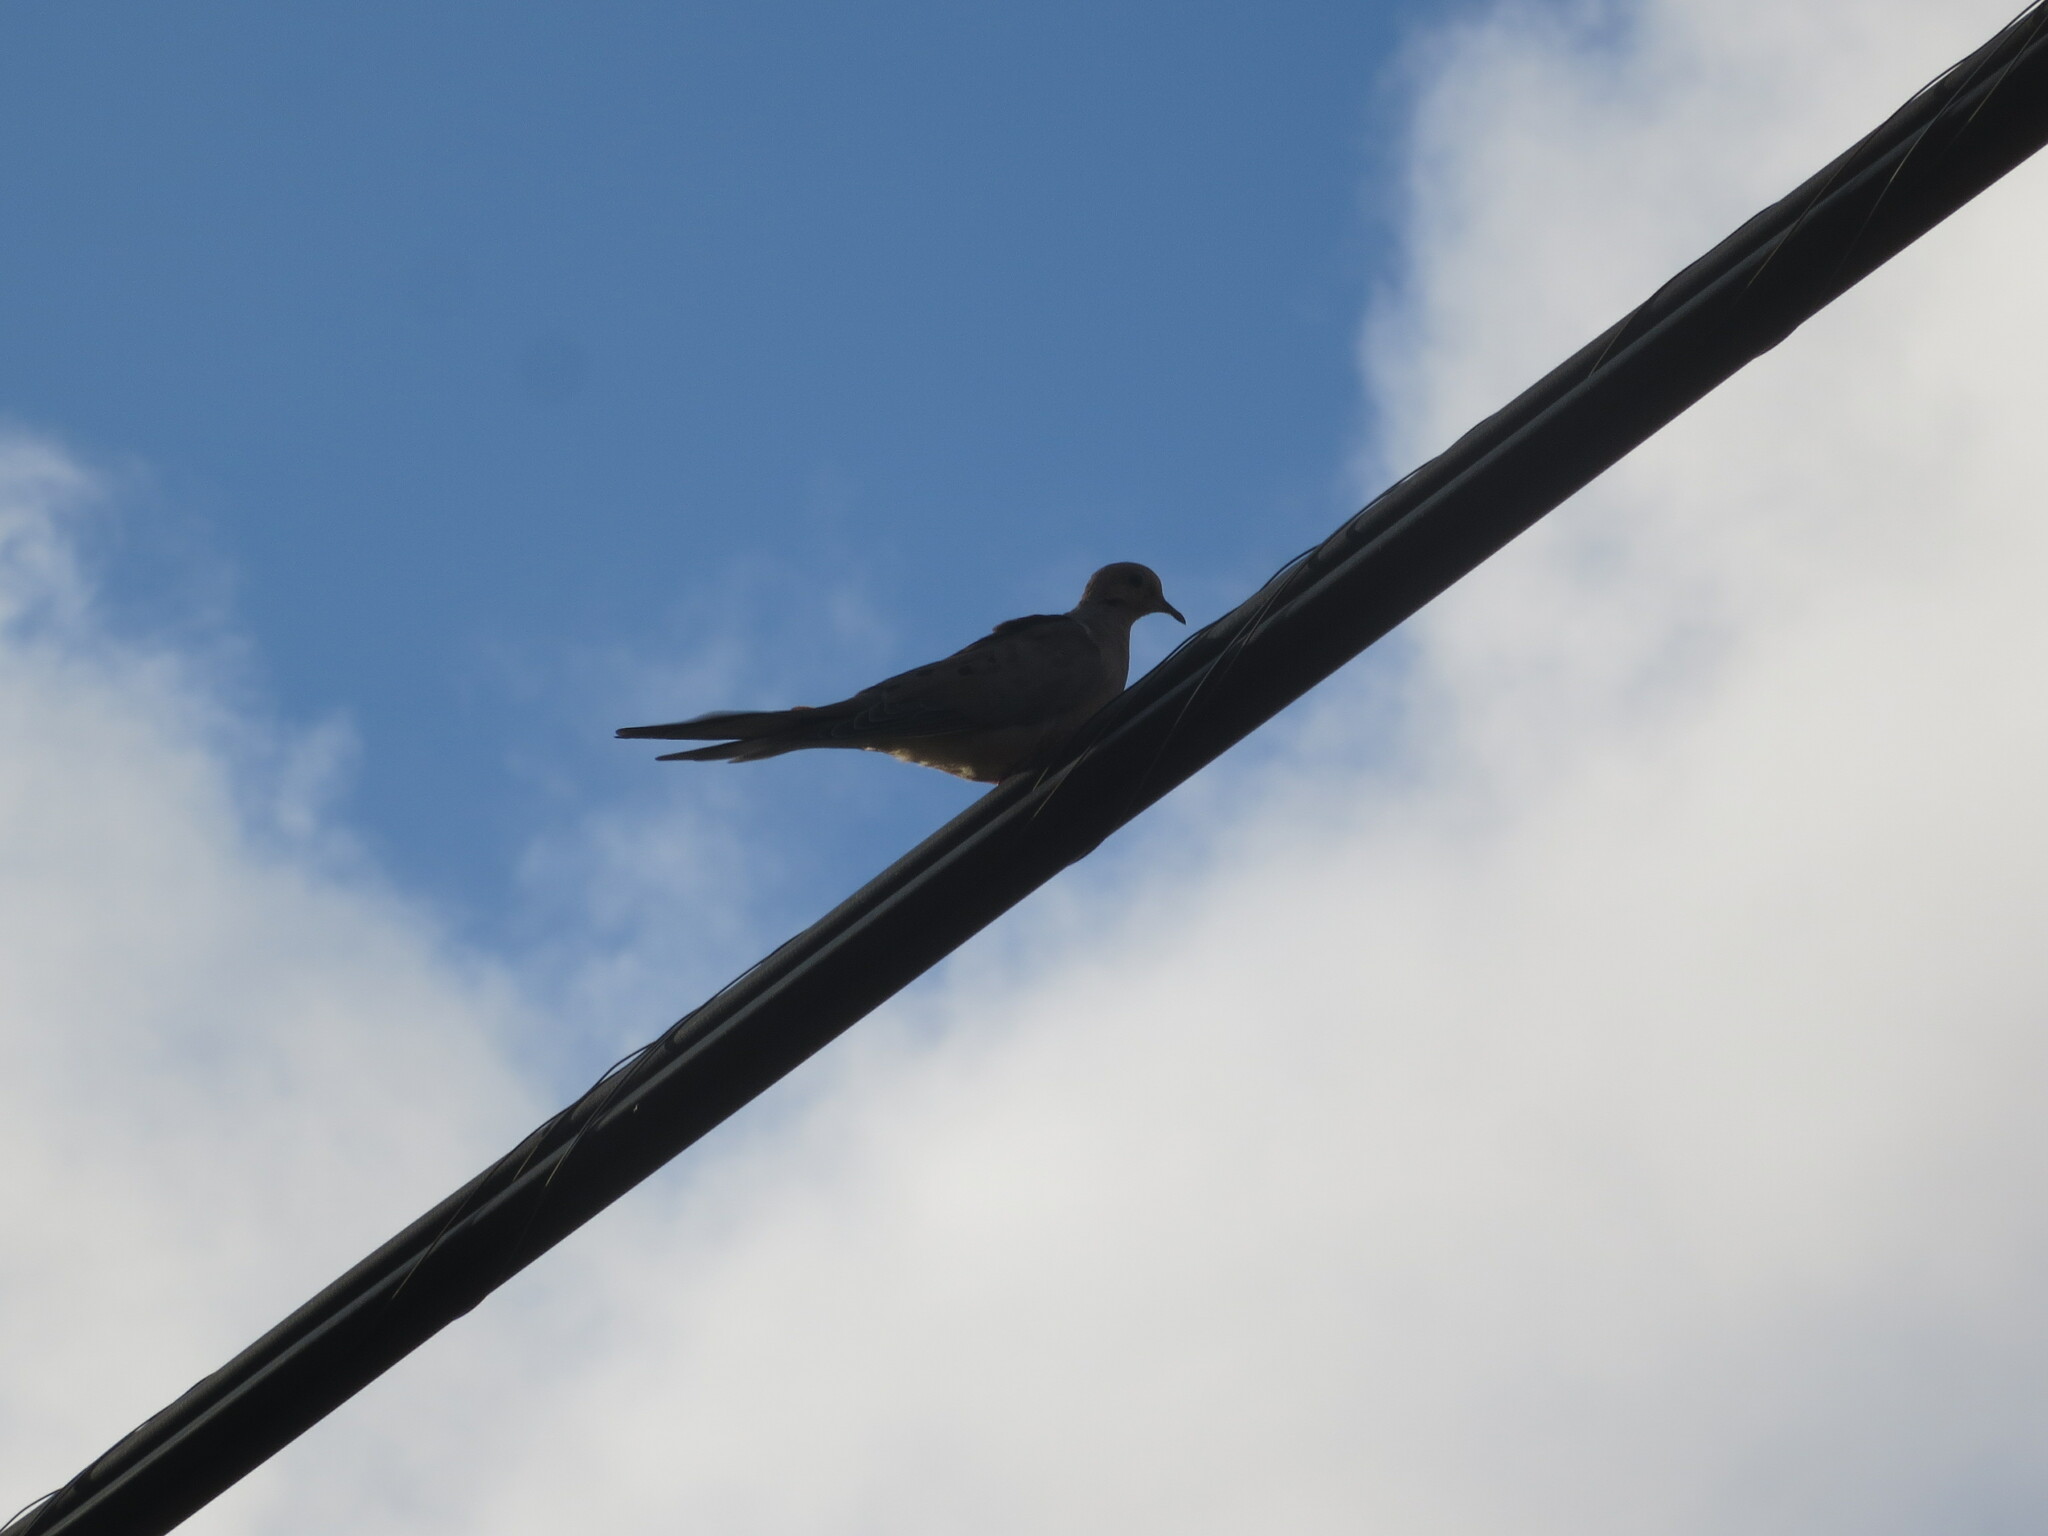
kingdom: Animalia
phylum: Chordata
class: Aves
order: Columbiformes
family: Columbidae
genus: Zenaida
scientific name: Zenaida macroura
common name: Mourning dove
